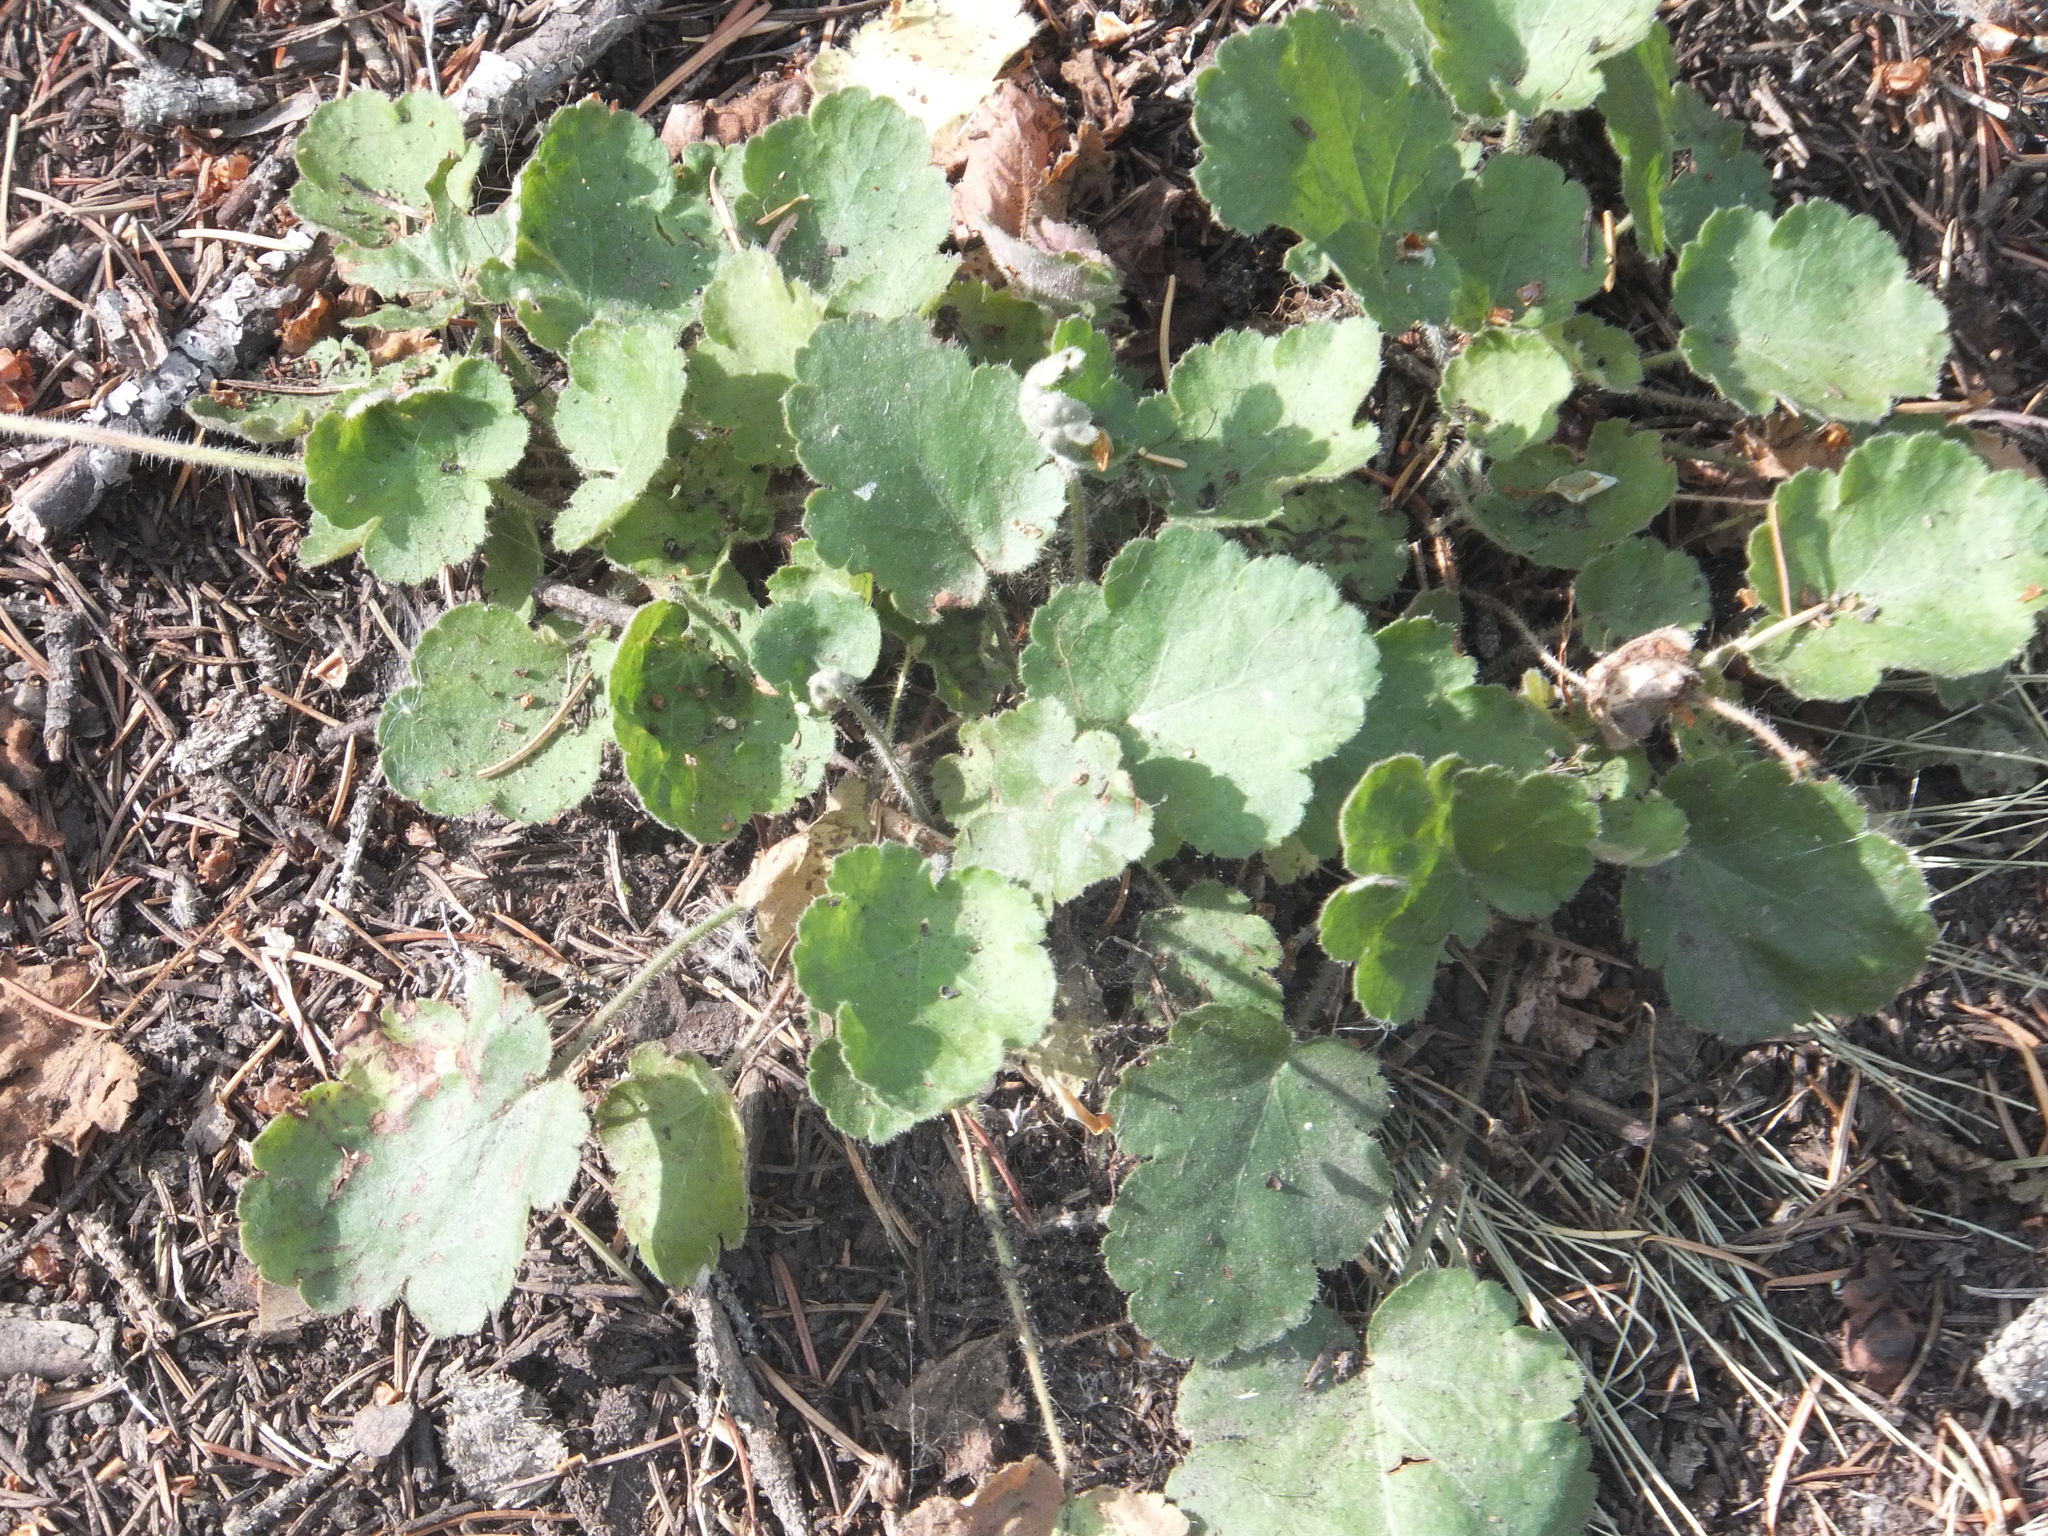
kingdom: Plantae
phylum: Tracheophyta
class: Magnoliopsida
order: Saxifragales
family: Saxifragaceae
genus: Heuchera
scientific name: Heuchera cylindrica
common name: Mat alumroot
